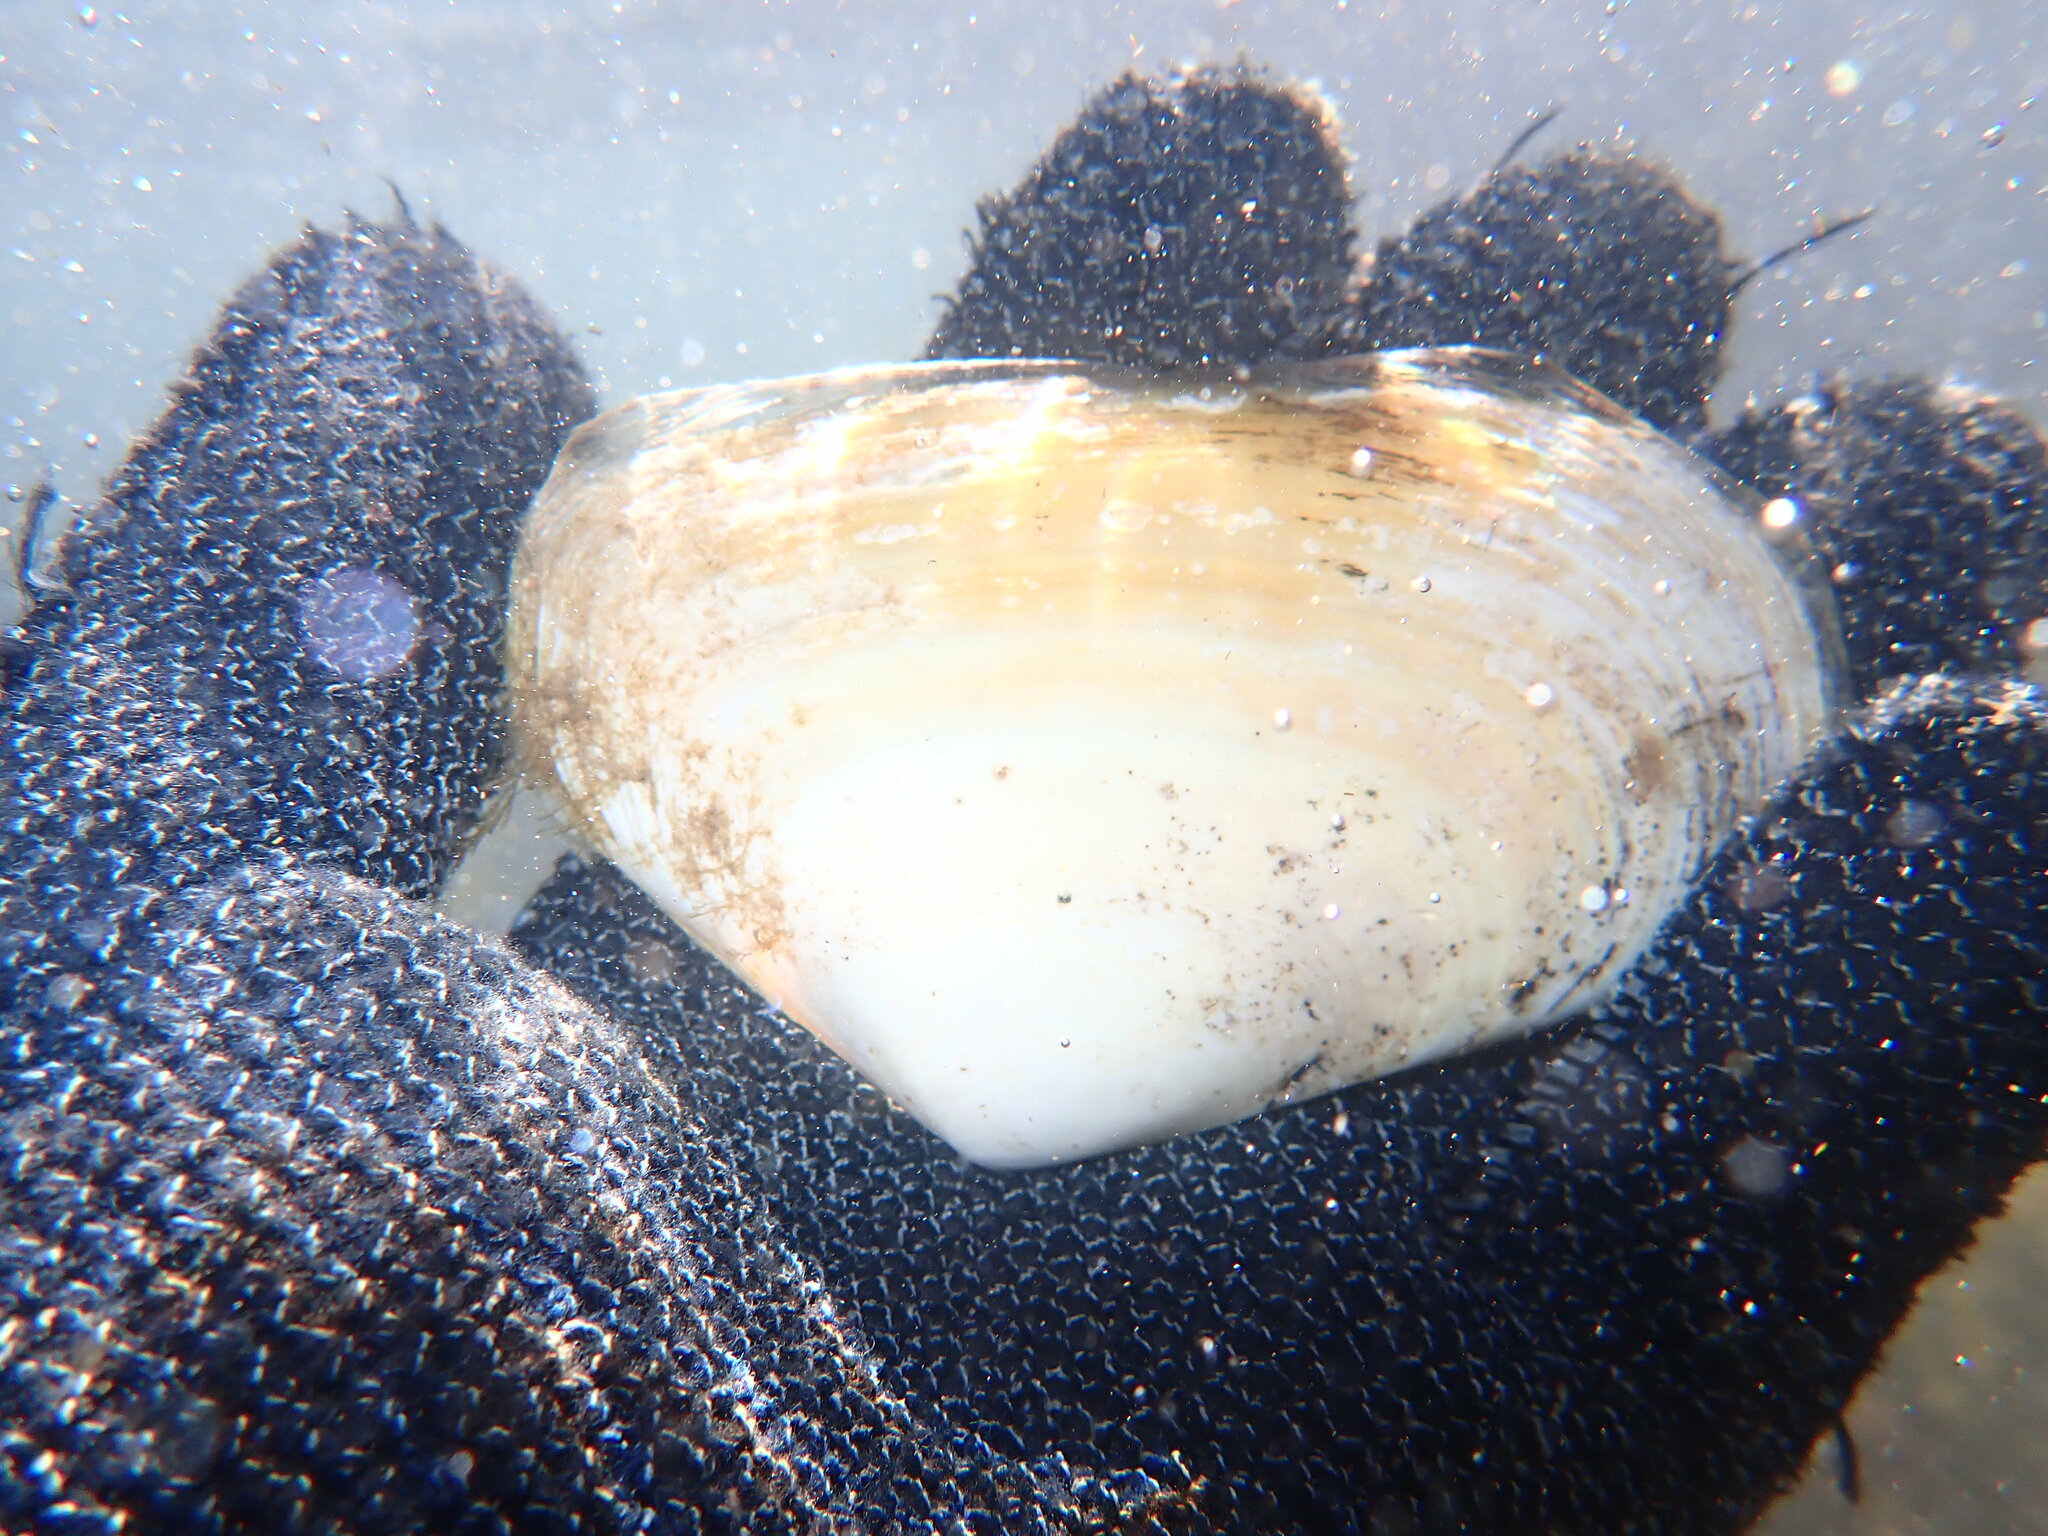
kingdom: Animalia
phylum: Mollusca
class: Bivalvia
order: Venerida
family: Mesodesmatidae
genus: Paphies
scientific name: Paphies donacina
